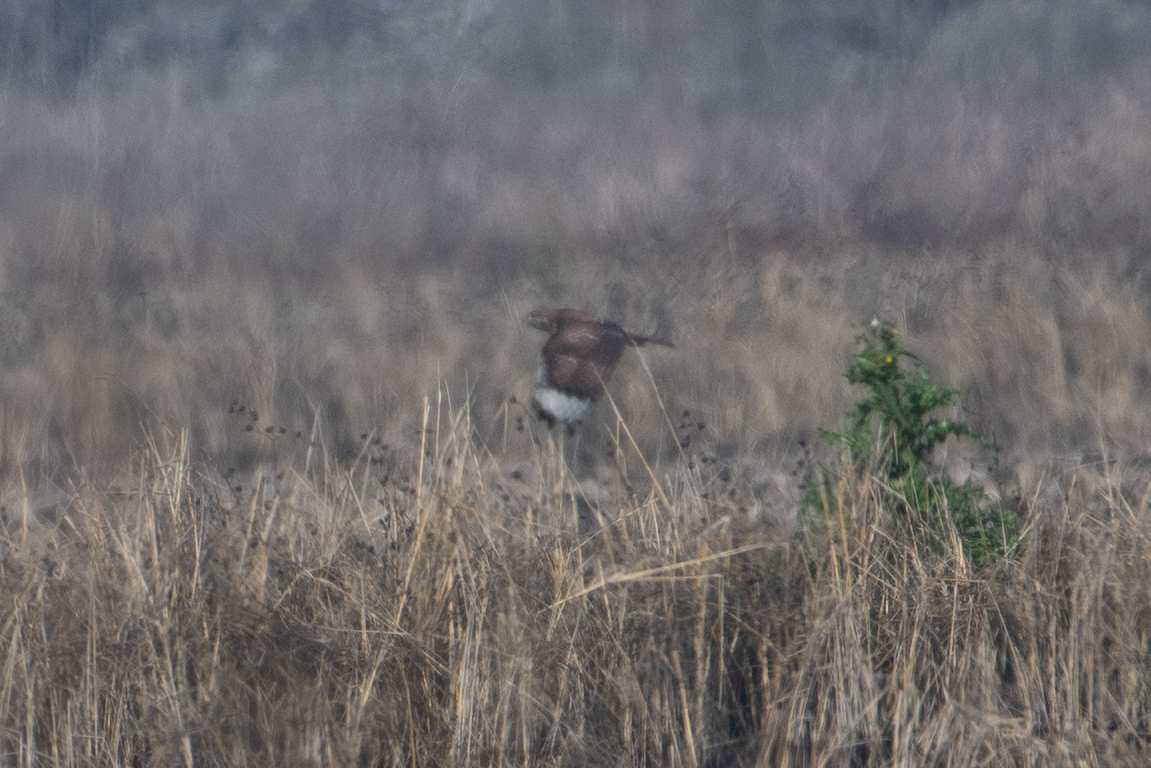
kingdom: Animalia
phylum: Chordata
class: Aves
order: Accipitriformes
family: Accipitridae
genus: Circus
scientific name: Circus cyaneus
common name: Hen harrier
